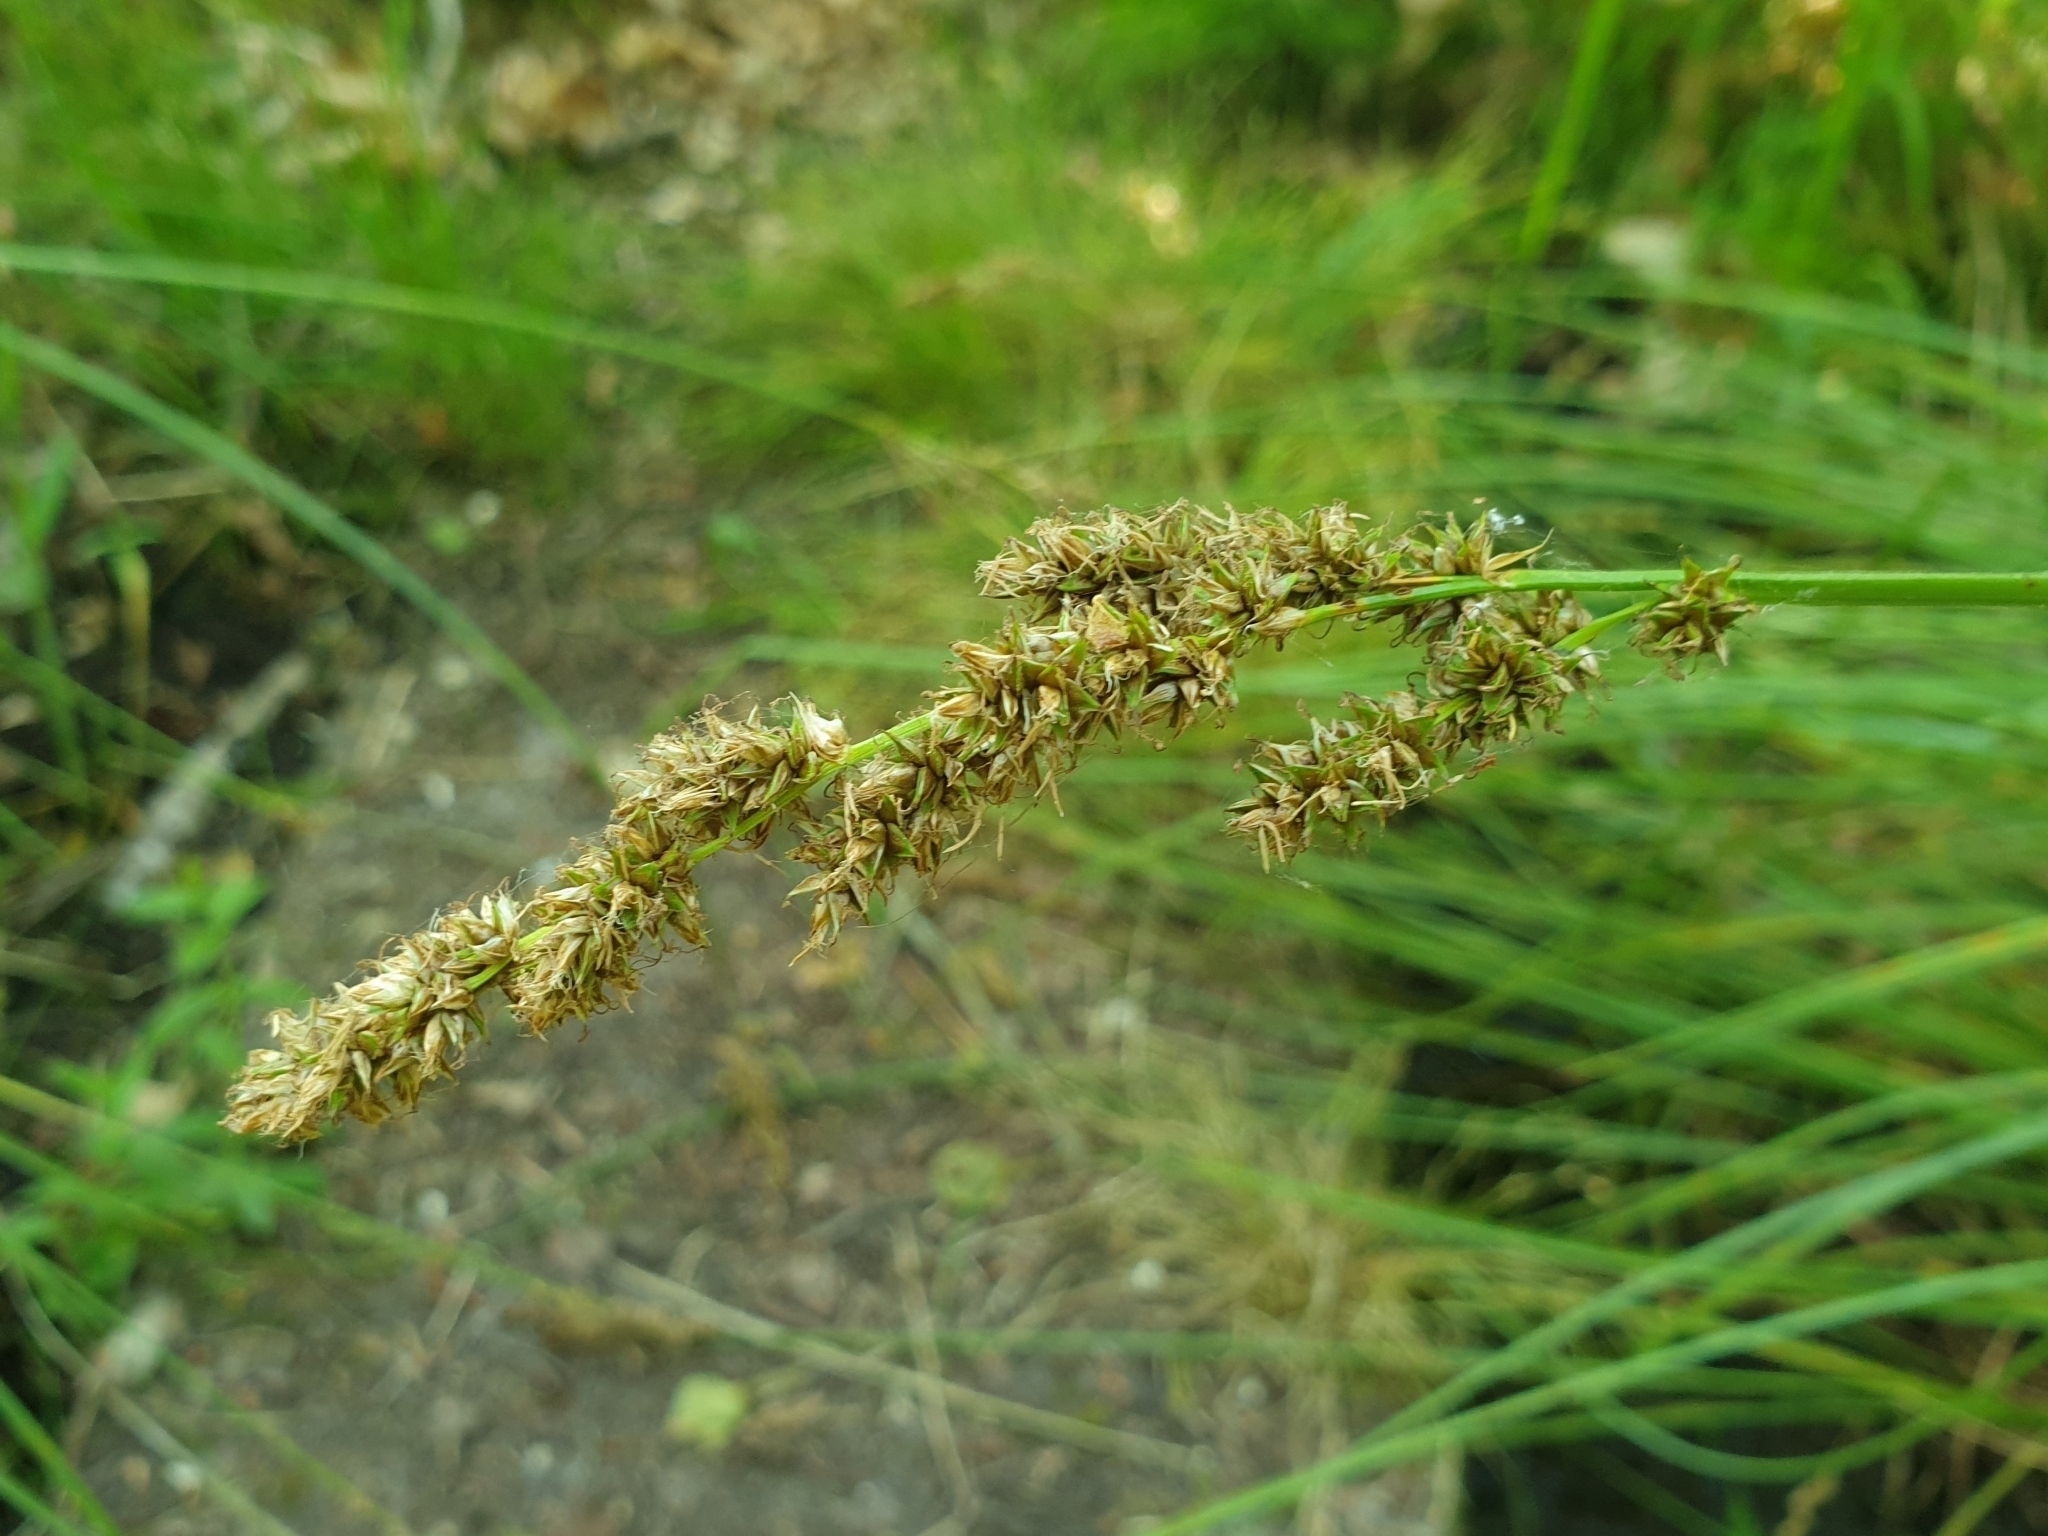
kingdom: Plantae
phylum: Tracheophyta
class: Liliopsida
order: Poales
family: Cyperaceae
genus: Carex
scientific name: Carex paniculata
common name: Greater tussock-sedge
